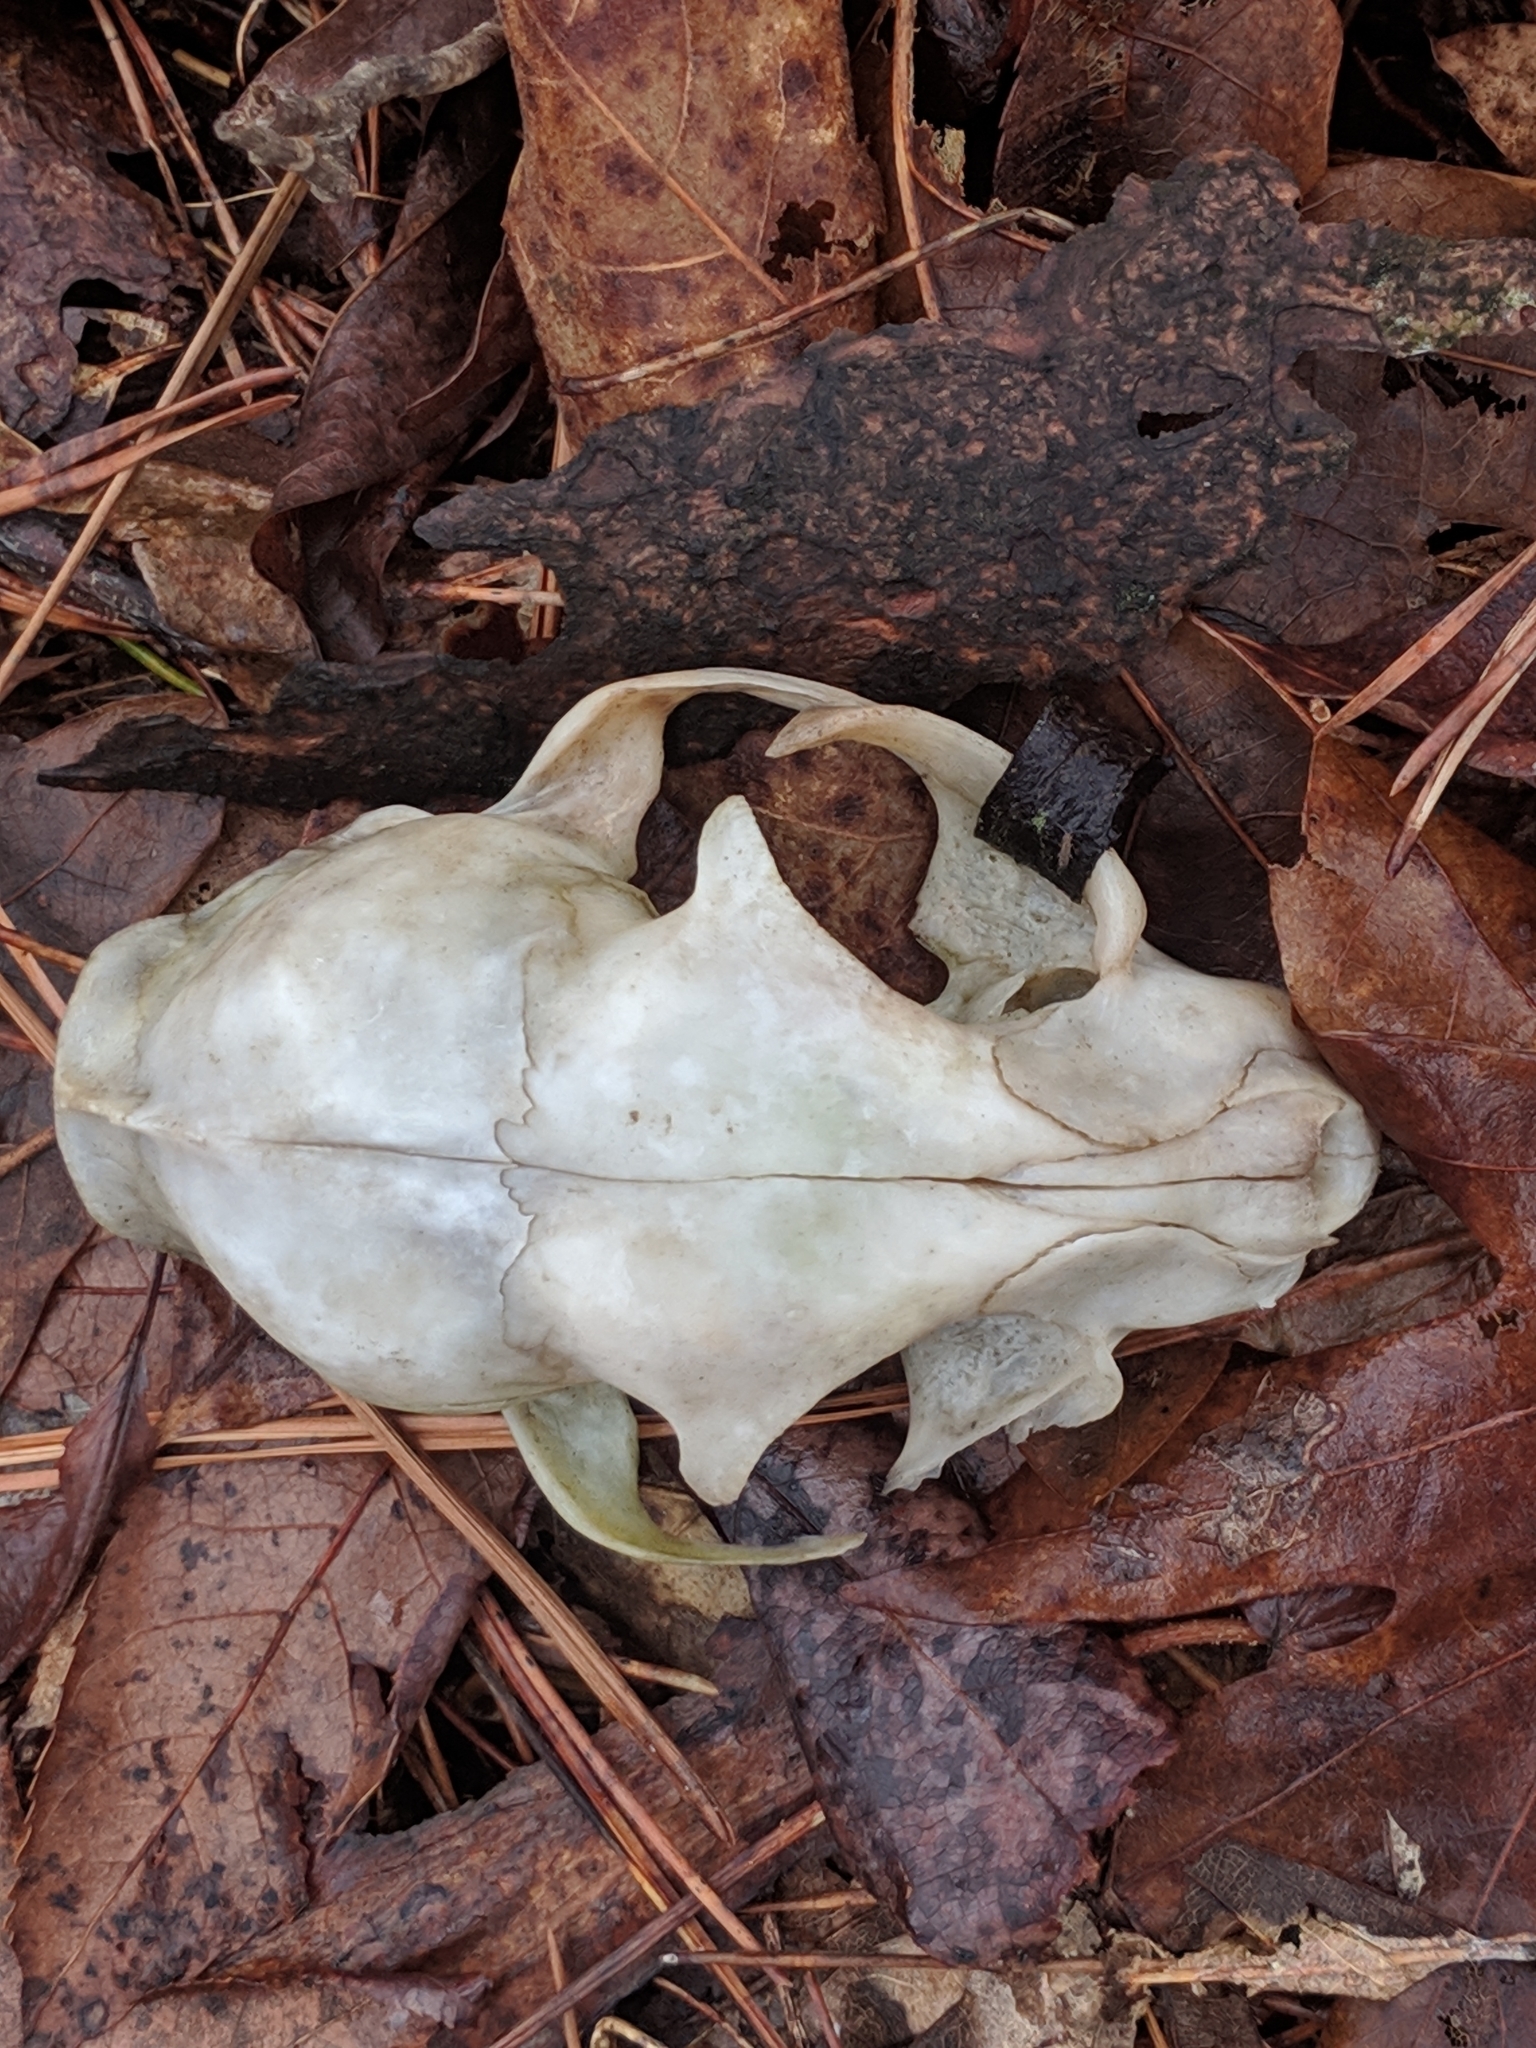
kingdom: Animalia
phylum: Chordata
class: Mammalia
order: Carnivora
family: Felidae
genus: Felis
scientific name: Felis catus
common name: Domestic cat
